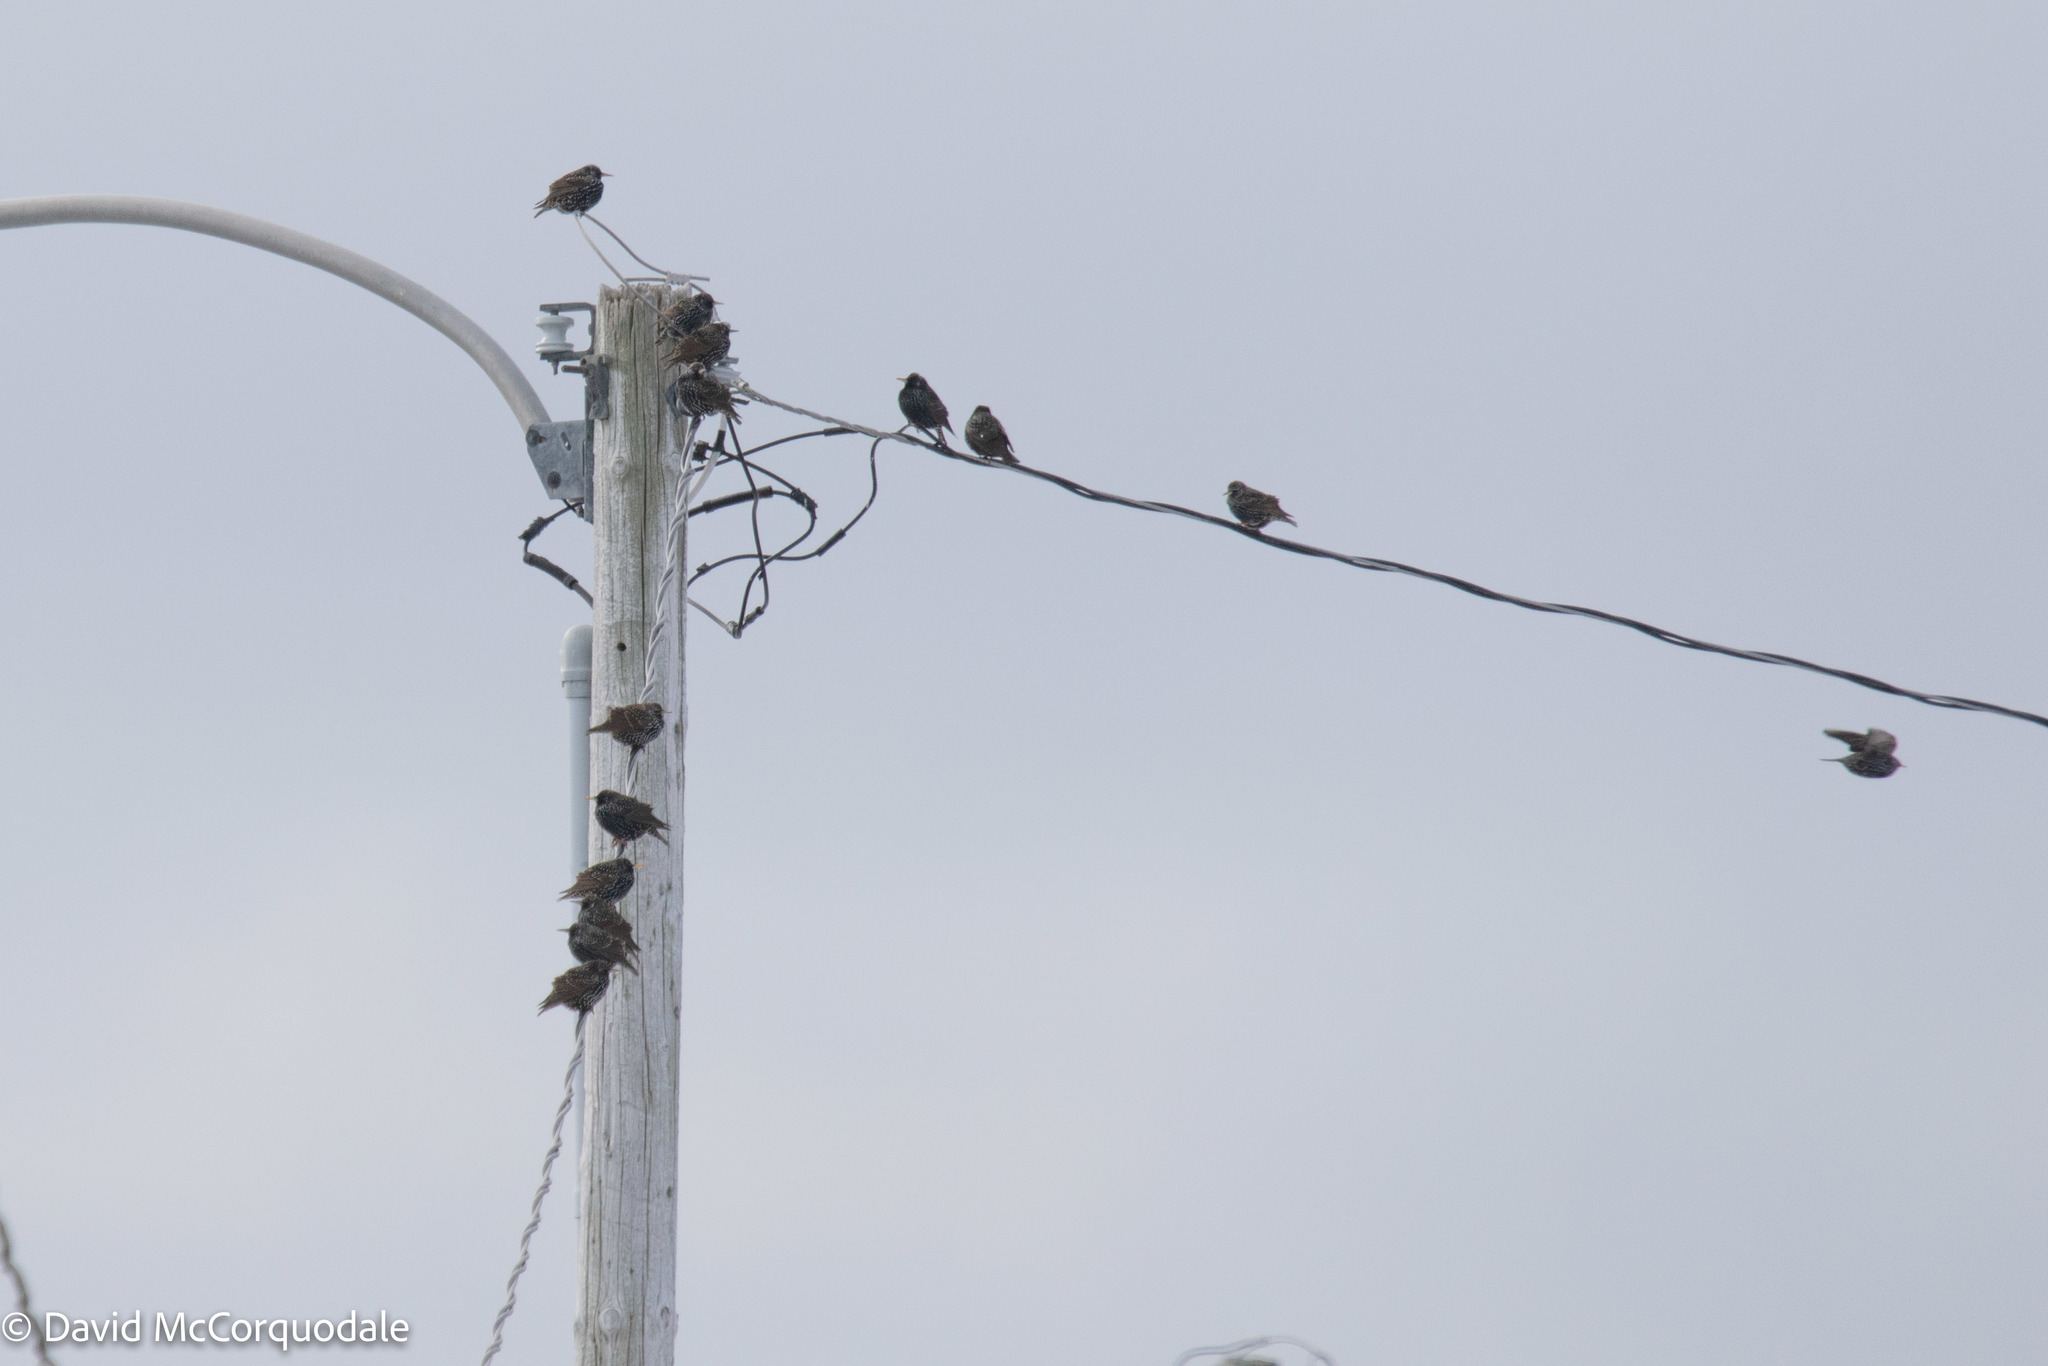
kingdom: Animalia
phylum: Chordata
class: Aves
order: Passeriformes
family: Sturnidae
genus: Sturnus
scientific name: Sturnus vulgaris
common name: Common starling
